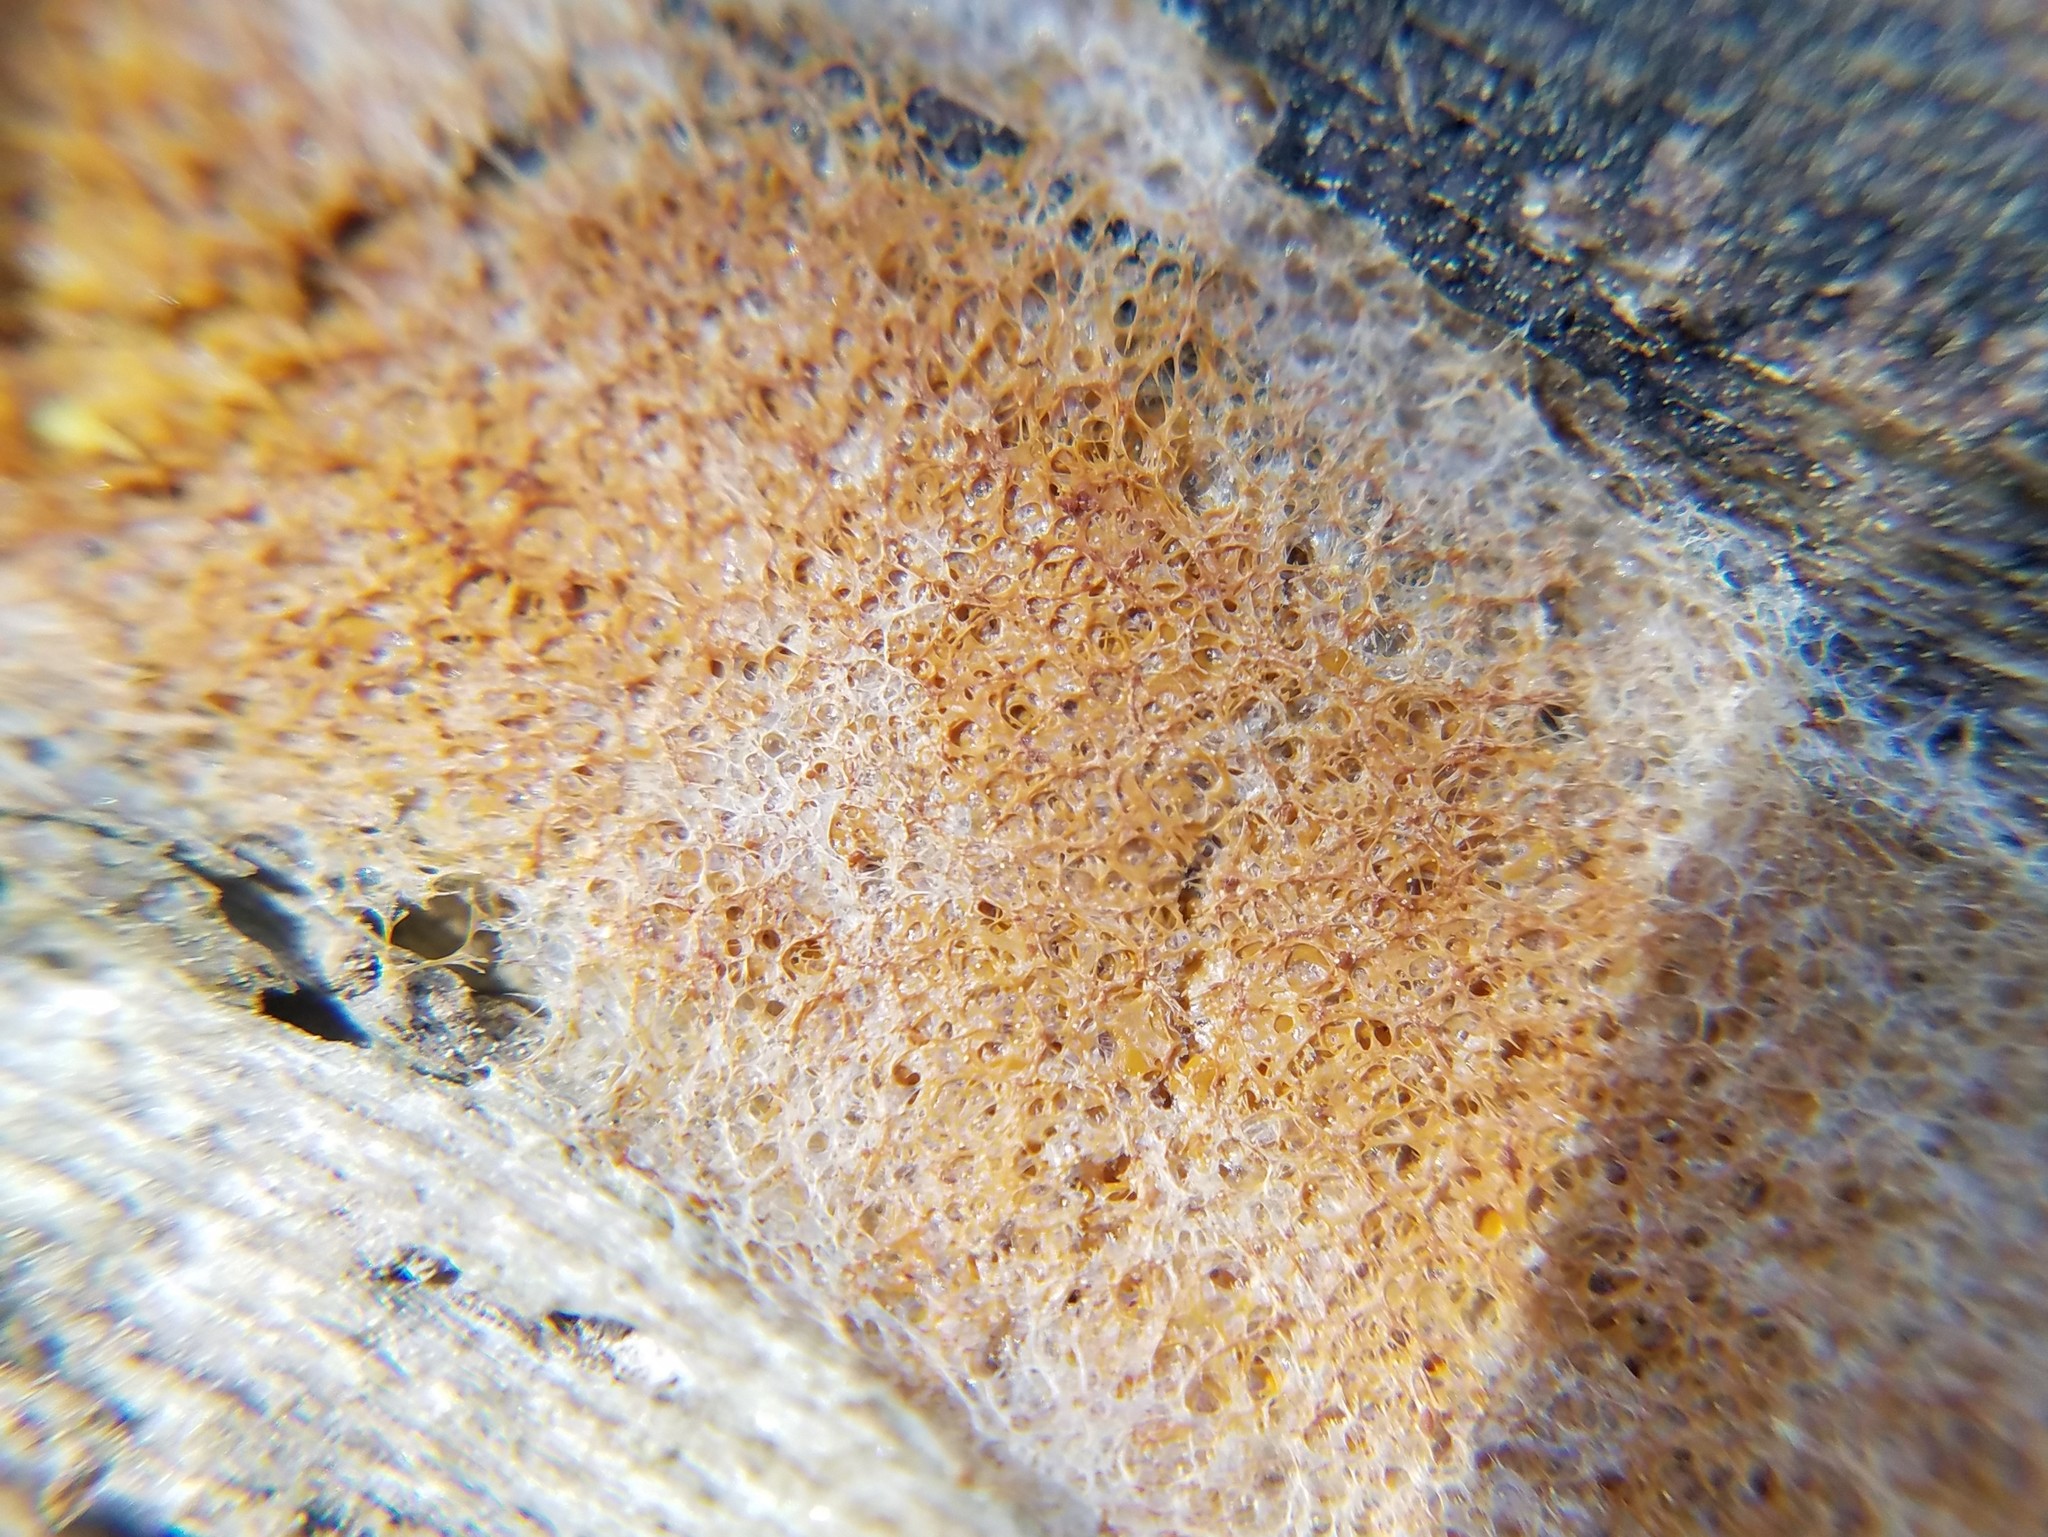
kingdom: Protozoa
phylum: Mycetozoa
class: Myxomycetes
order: Physarales
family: Physaraceae
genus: Fuligo
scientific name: Fuligo septica
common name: Dog vomit slime mold
